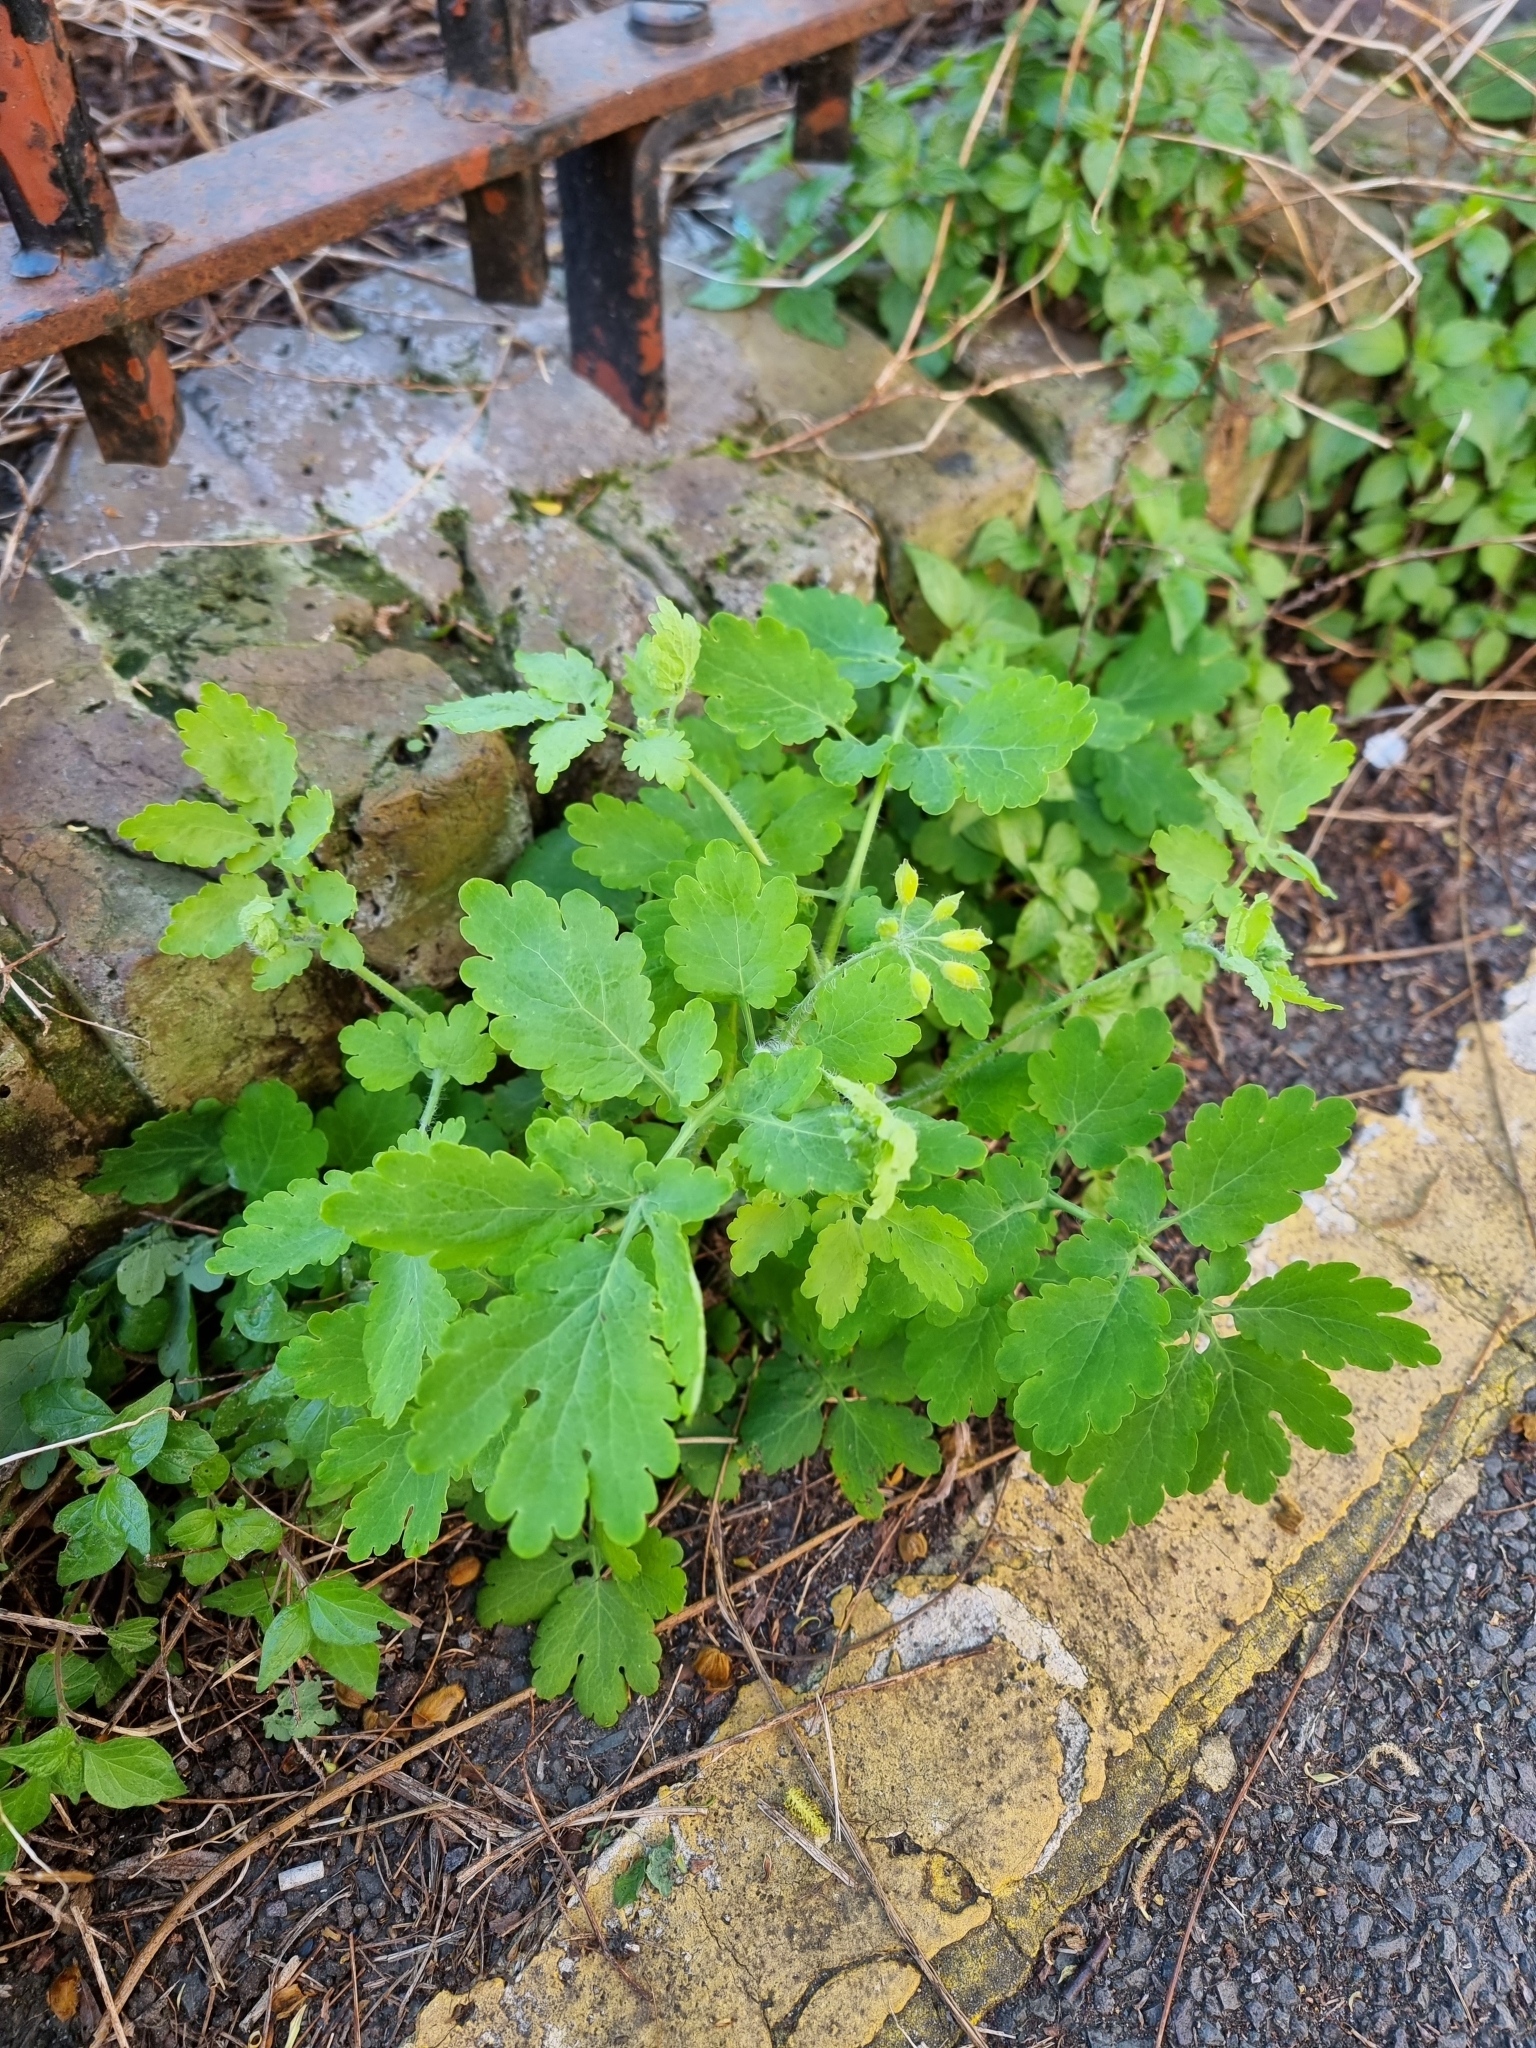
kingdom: Plantae
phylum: Tracheophyta
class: Magnoliopsida
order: Ranunculales
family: Papaveraceae
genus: Chelidonium
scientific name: Chelidonium majus
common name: Greater celandine
